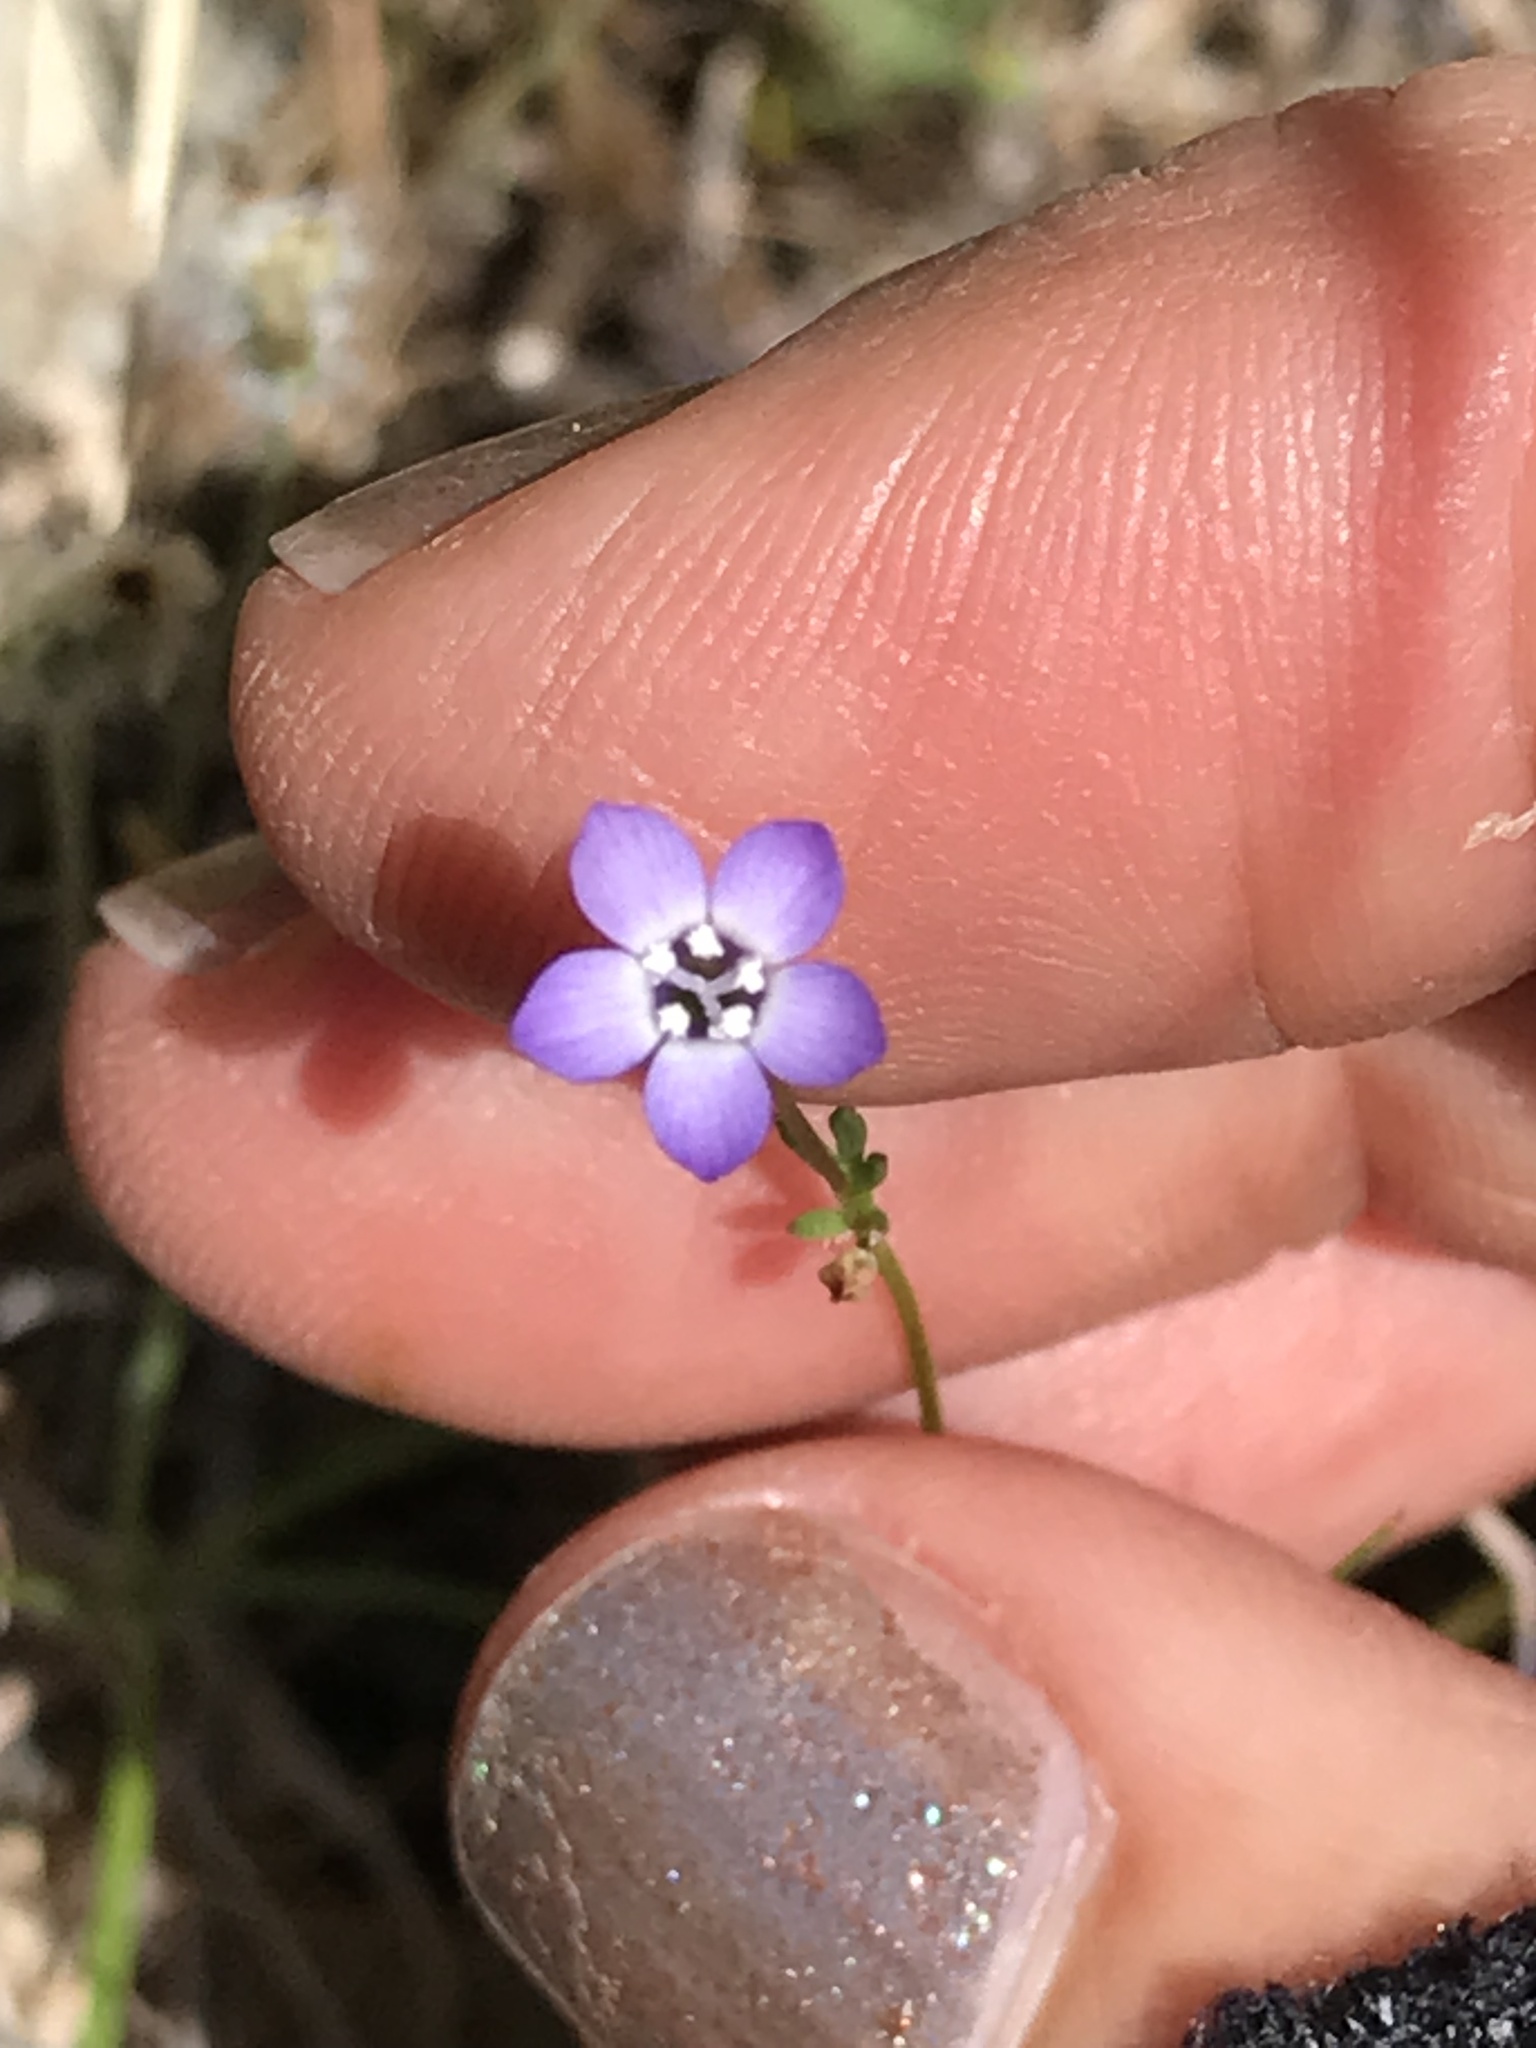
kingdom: Plantae
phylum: Tracheophyta
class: Magnoliopsida
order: Ericales
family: Polemoniaceae
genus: Gilia
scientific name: Gilia clivorum
